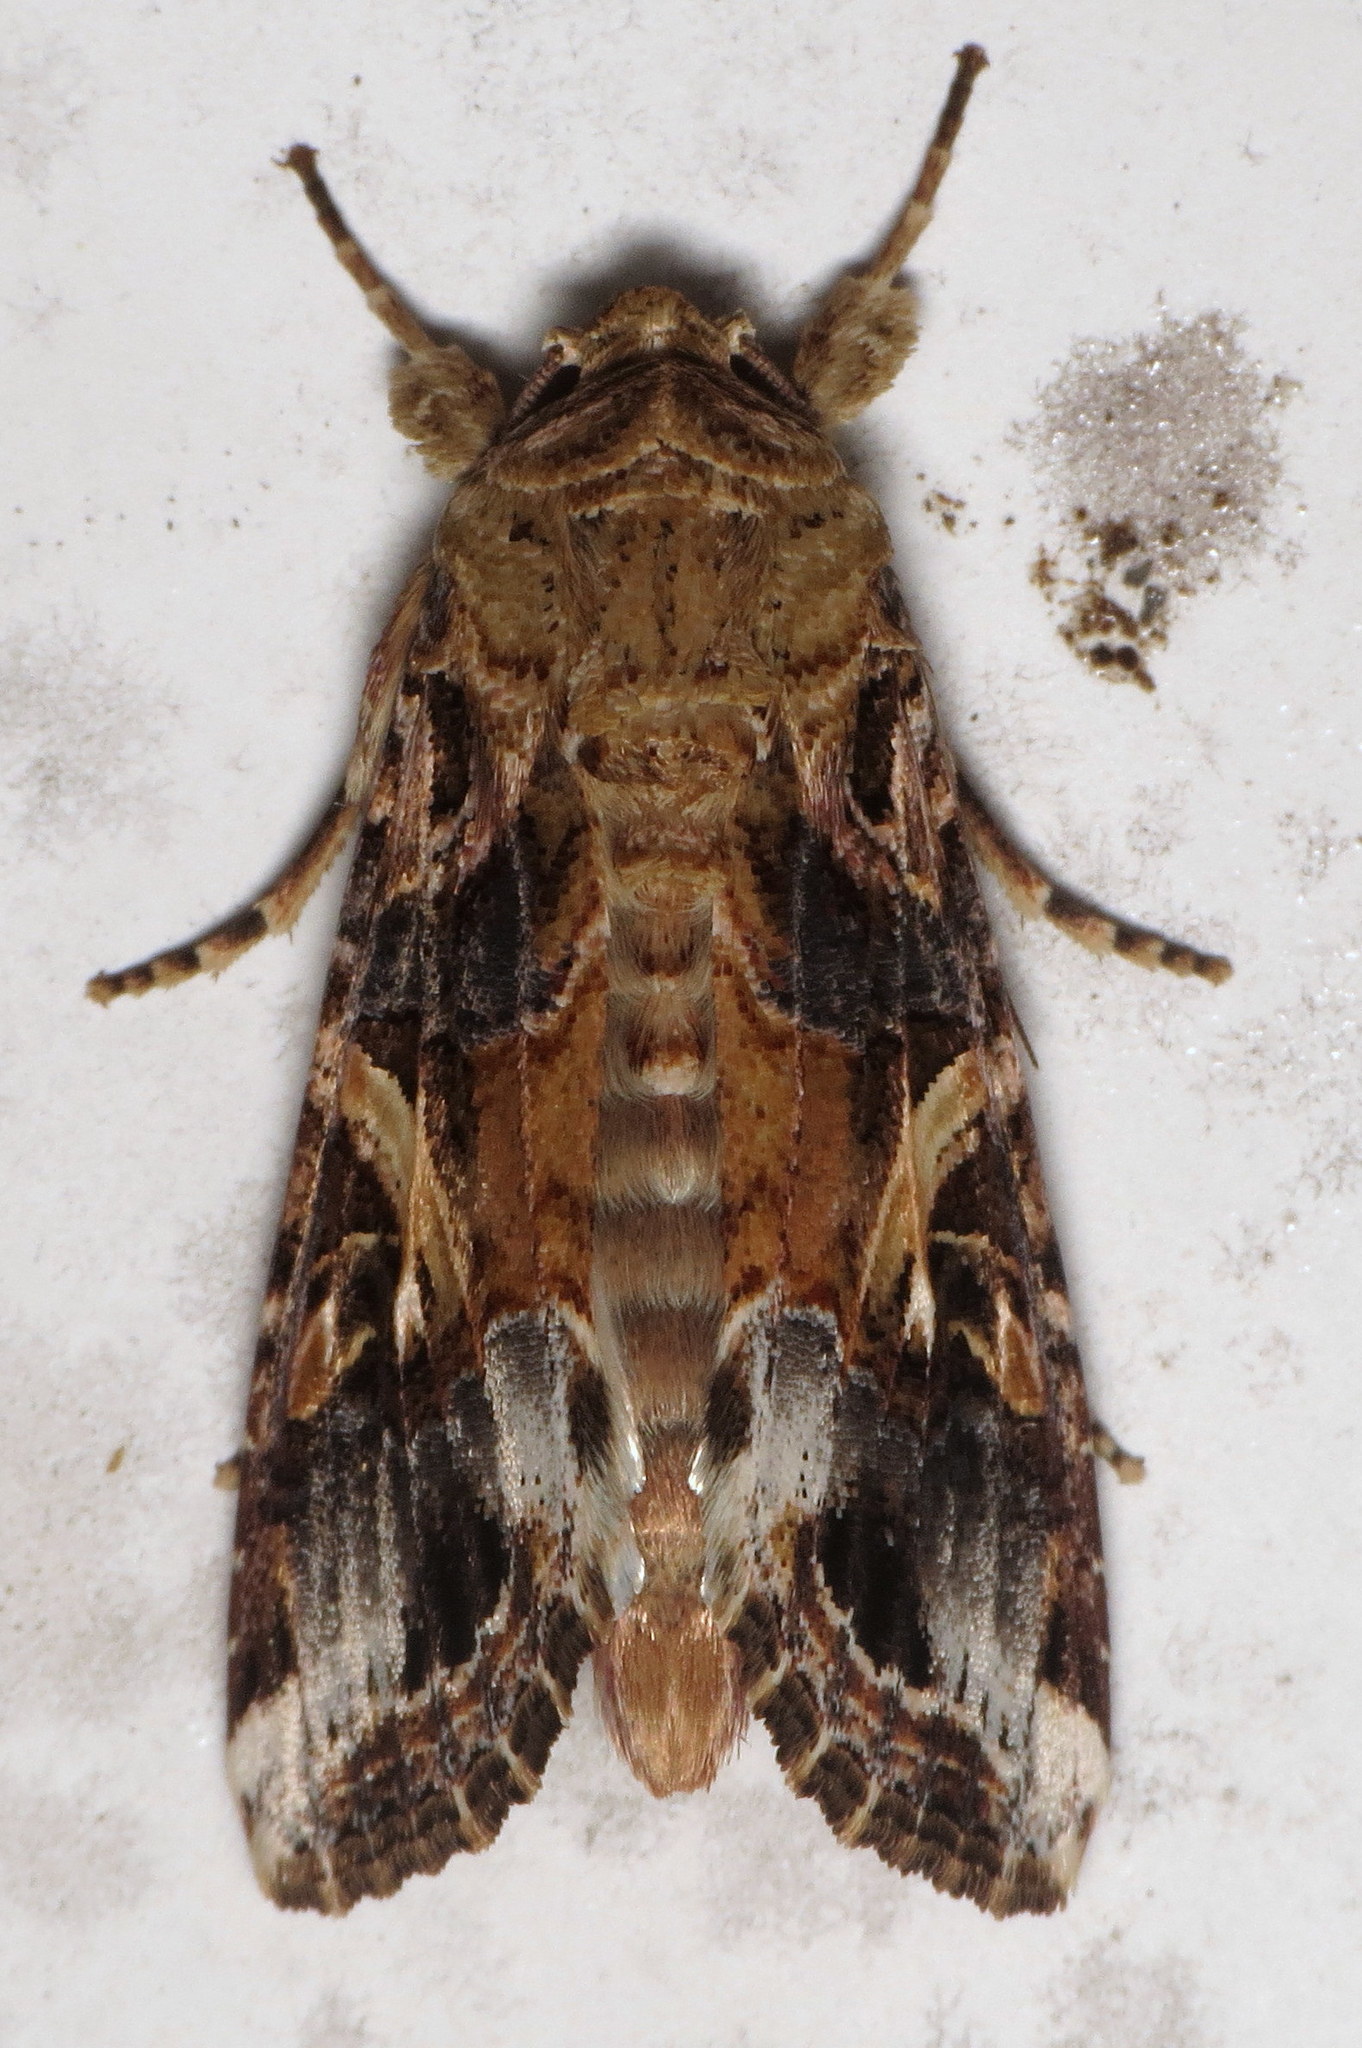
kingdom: Animalia
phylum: Arthropoda
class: Insecta
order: Lepidoptera
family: Noctuidae
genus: Spodoptera
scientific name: Spodoptera ornithogalli
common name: Yellow-striped armyworm
